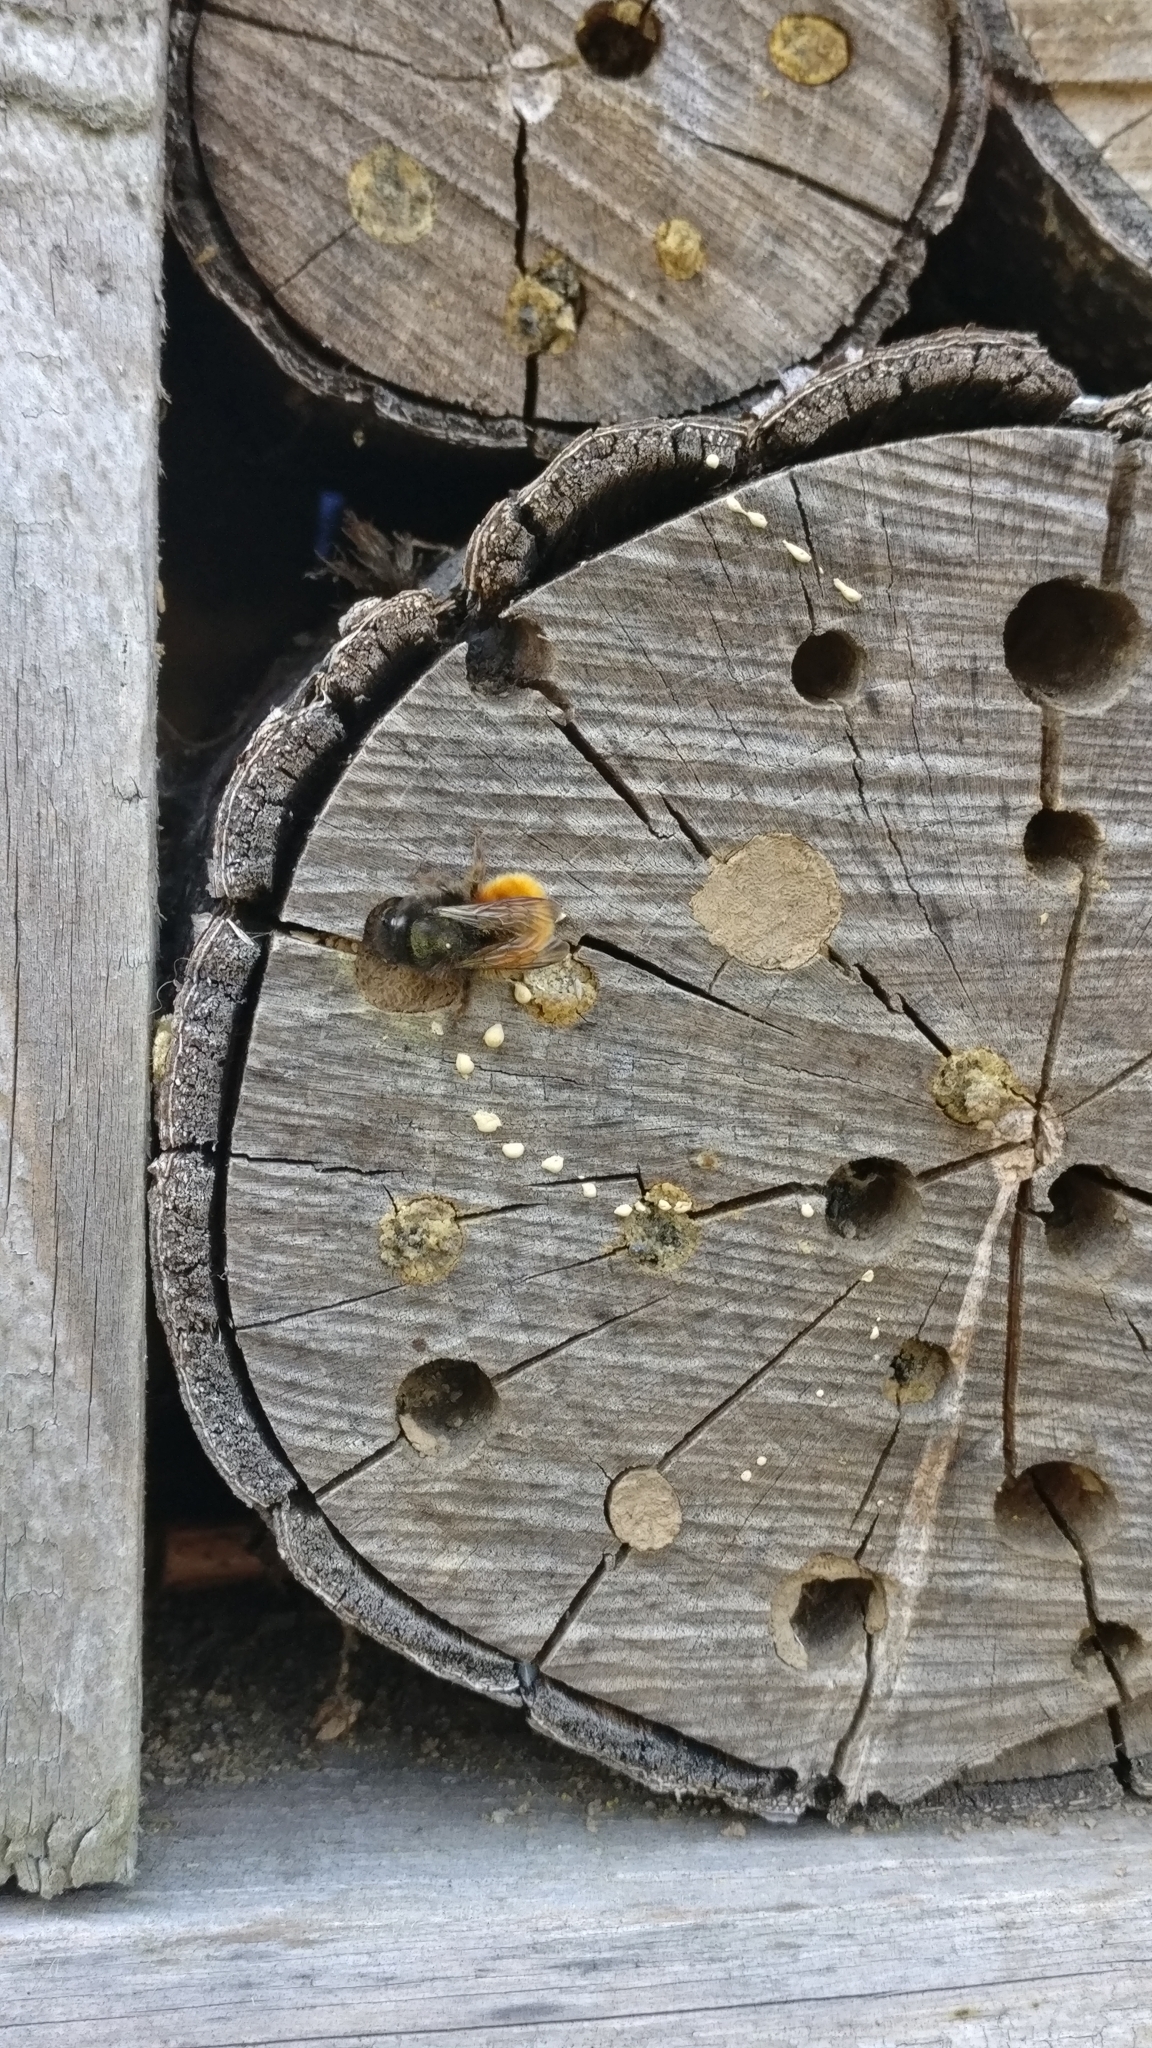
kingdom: Animalia
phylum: Arthropoda
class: Insecta
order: Hymenoptera
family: Megachilidae
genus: Osmia
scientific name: Osmia cornuta
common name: Mason bee
